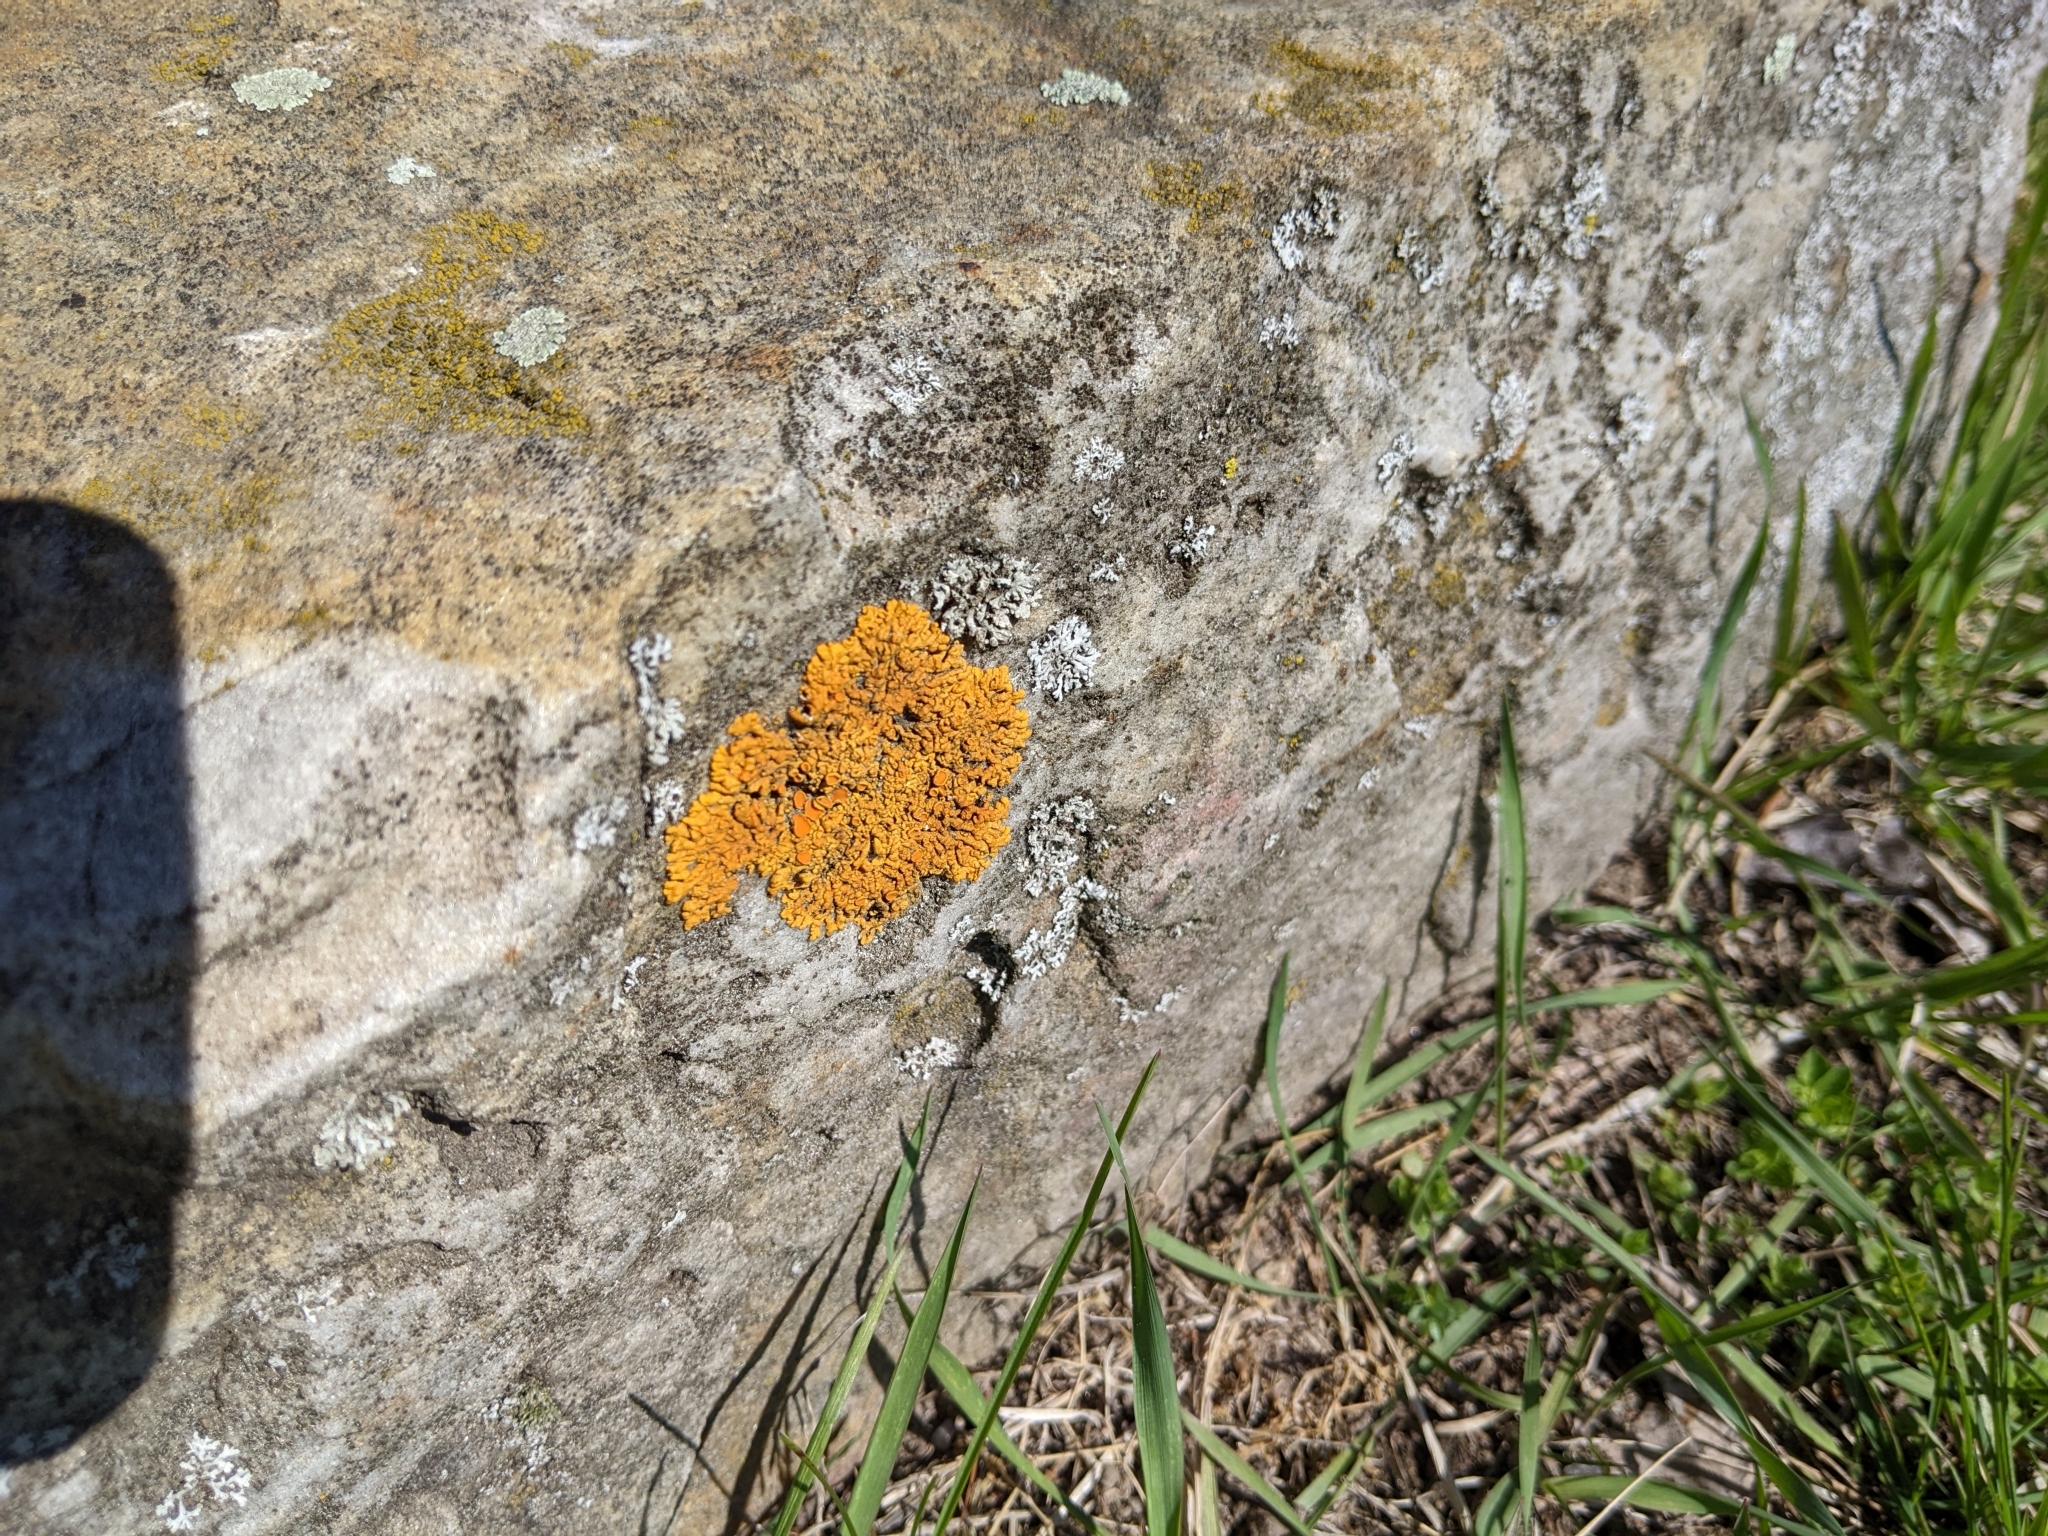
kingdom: Fungi
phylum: Ascomycota
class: Lecanoromycetes
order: Teloschistales
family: Teloschistaceae
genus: Xanthoria
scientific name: Xanthoria elegans
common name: Elegant sunburst lichen
